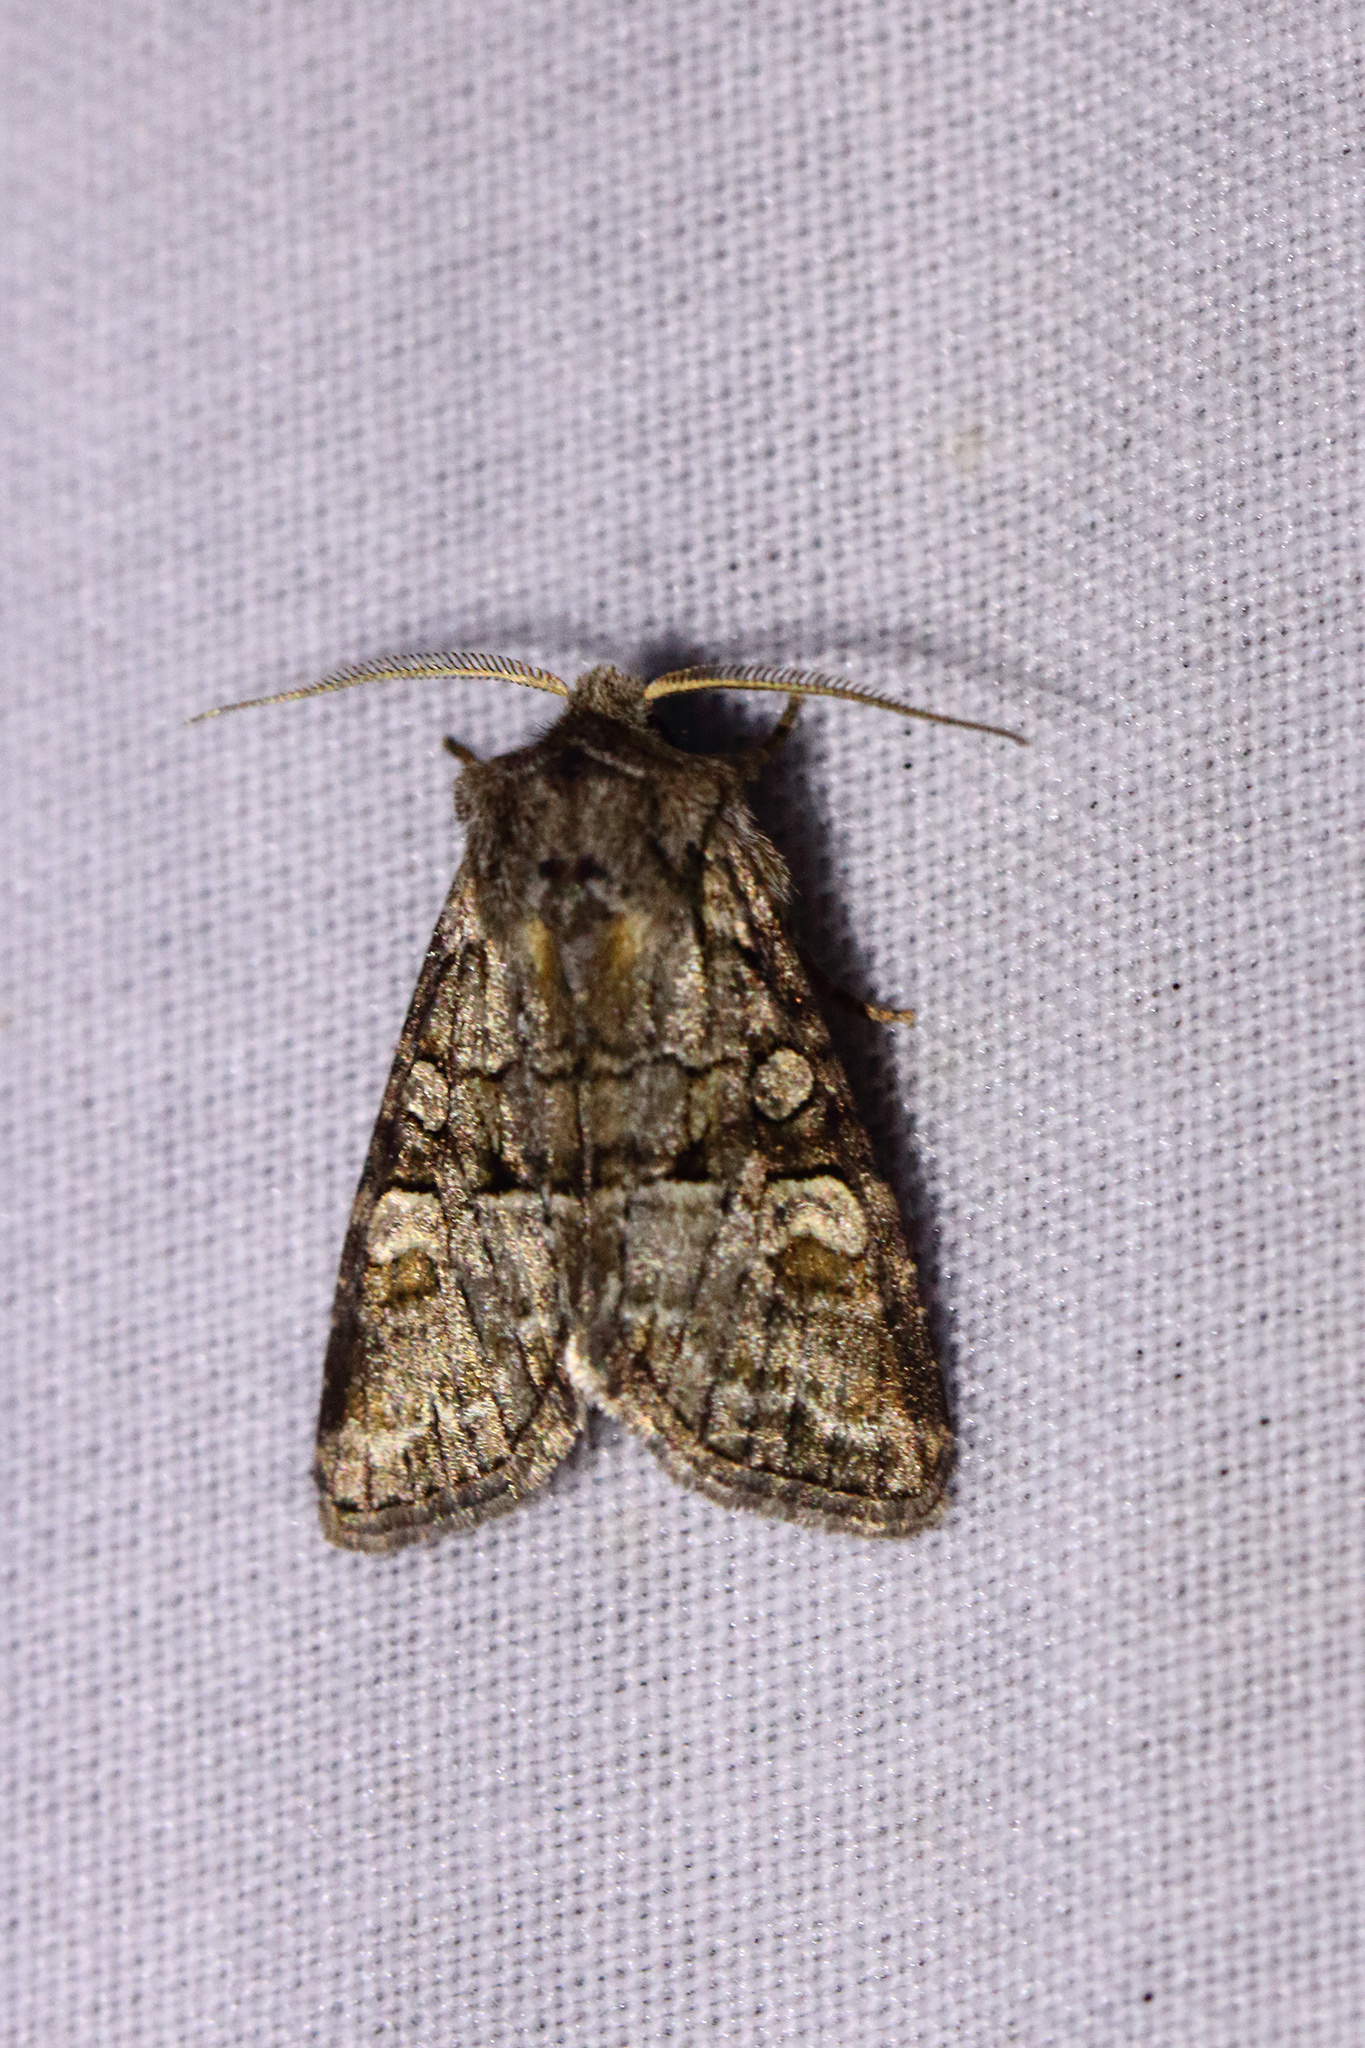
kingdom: Animalia
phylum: Arthropoda
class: Insecta
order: Lepidoptera
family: Noctuidae
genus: Brachylomia
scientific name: Brachylomia viminalis
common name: Minor shoulder-knot
